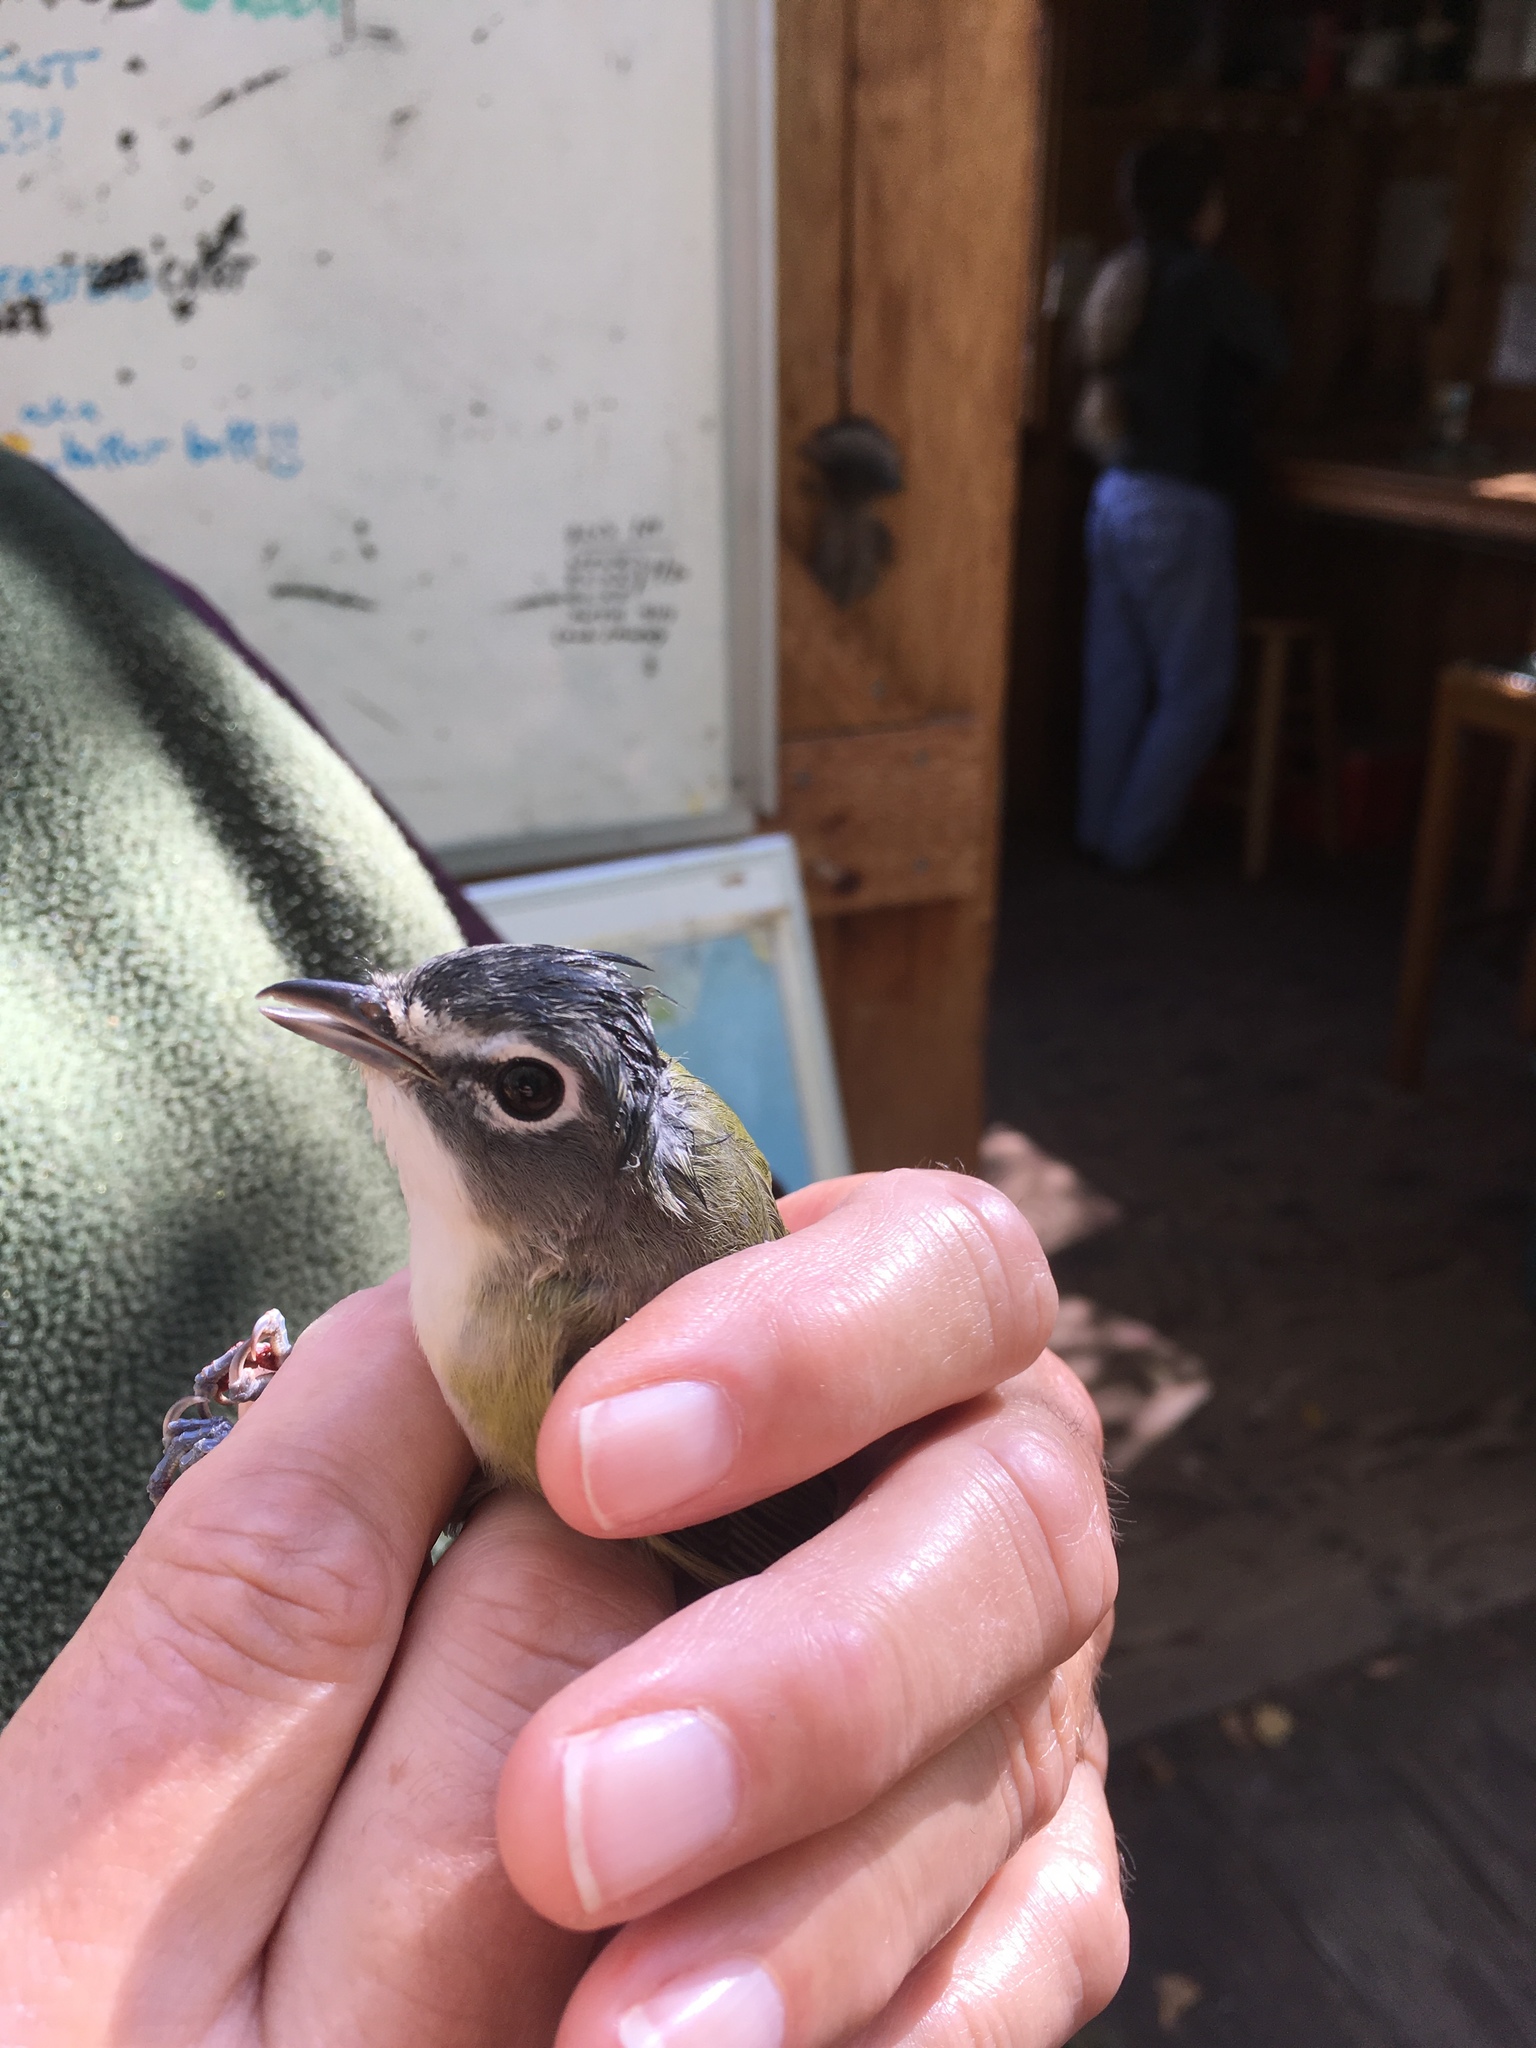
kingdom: Animalia
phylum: Chordata
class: Aves
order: Passeriformes
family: Vireonidae
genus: Vireo
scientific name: Vireo solitarius
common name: Blue-headed vireo
